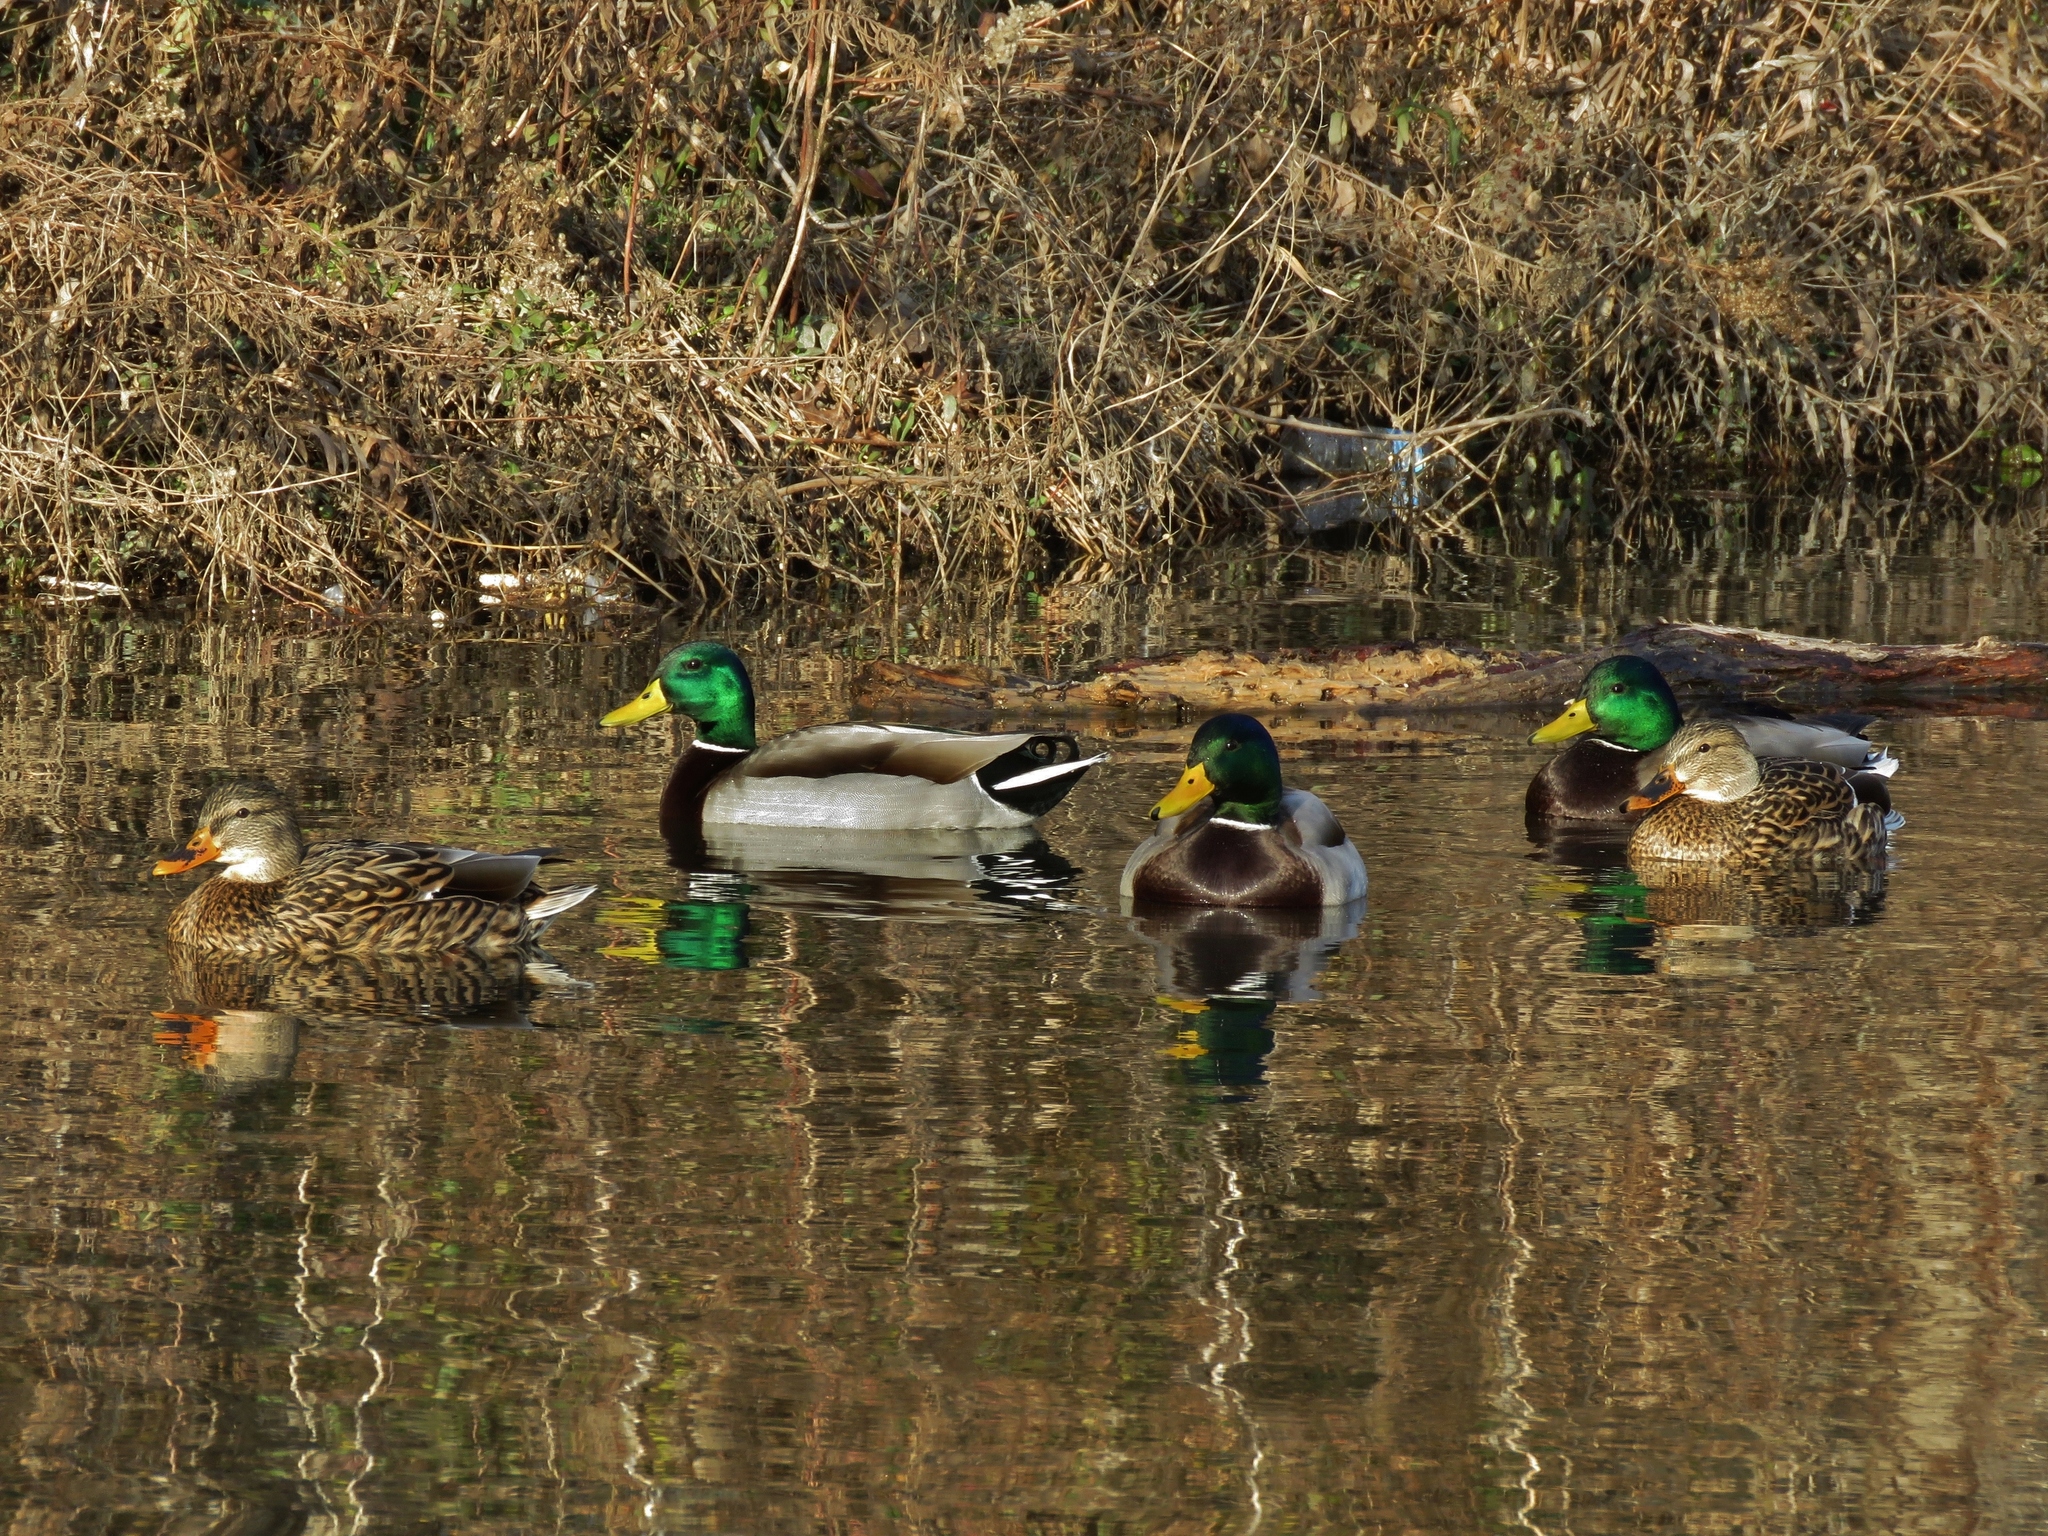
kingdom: Animalia
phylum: Chordata
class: Aves
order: Anseriformes
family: Anatidae
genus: Anas
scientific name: Anas platyrhynchos
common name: Mallard
